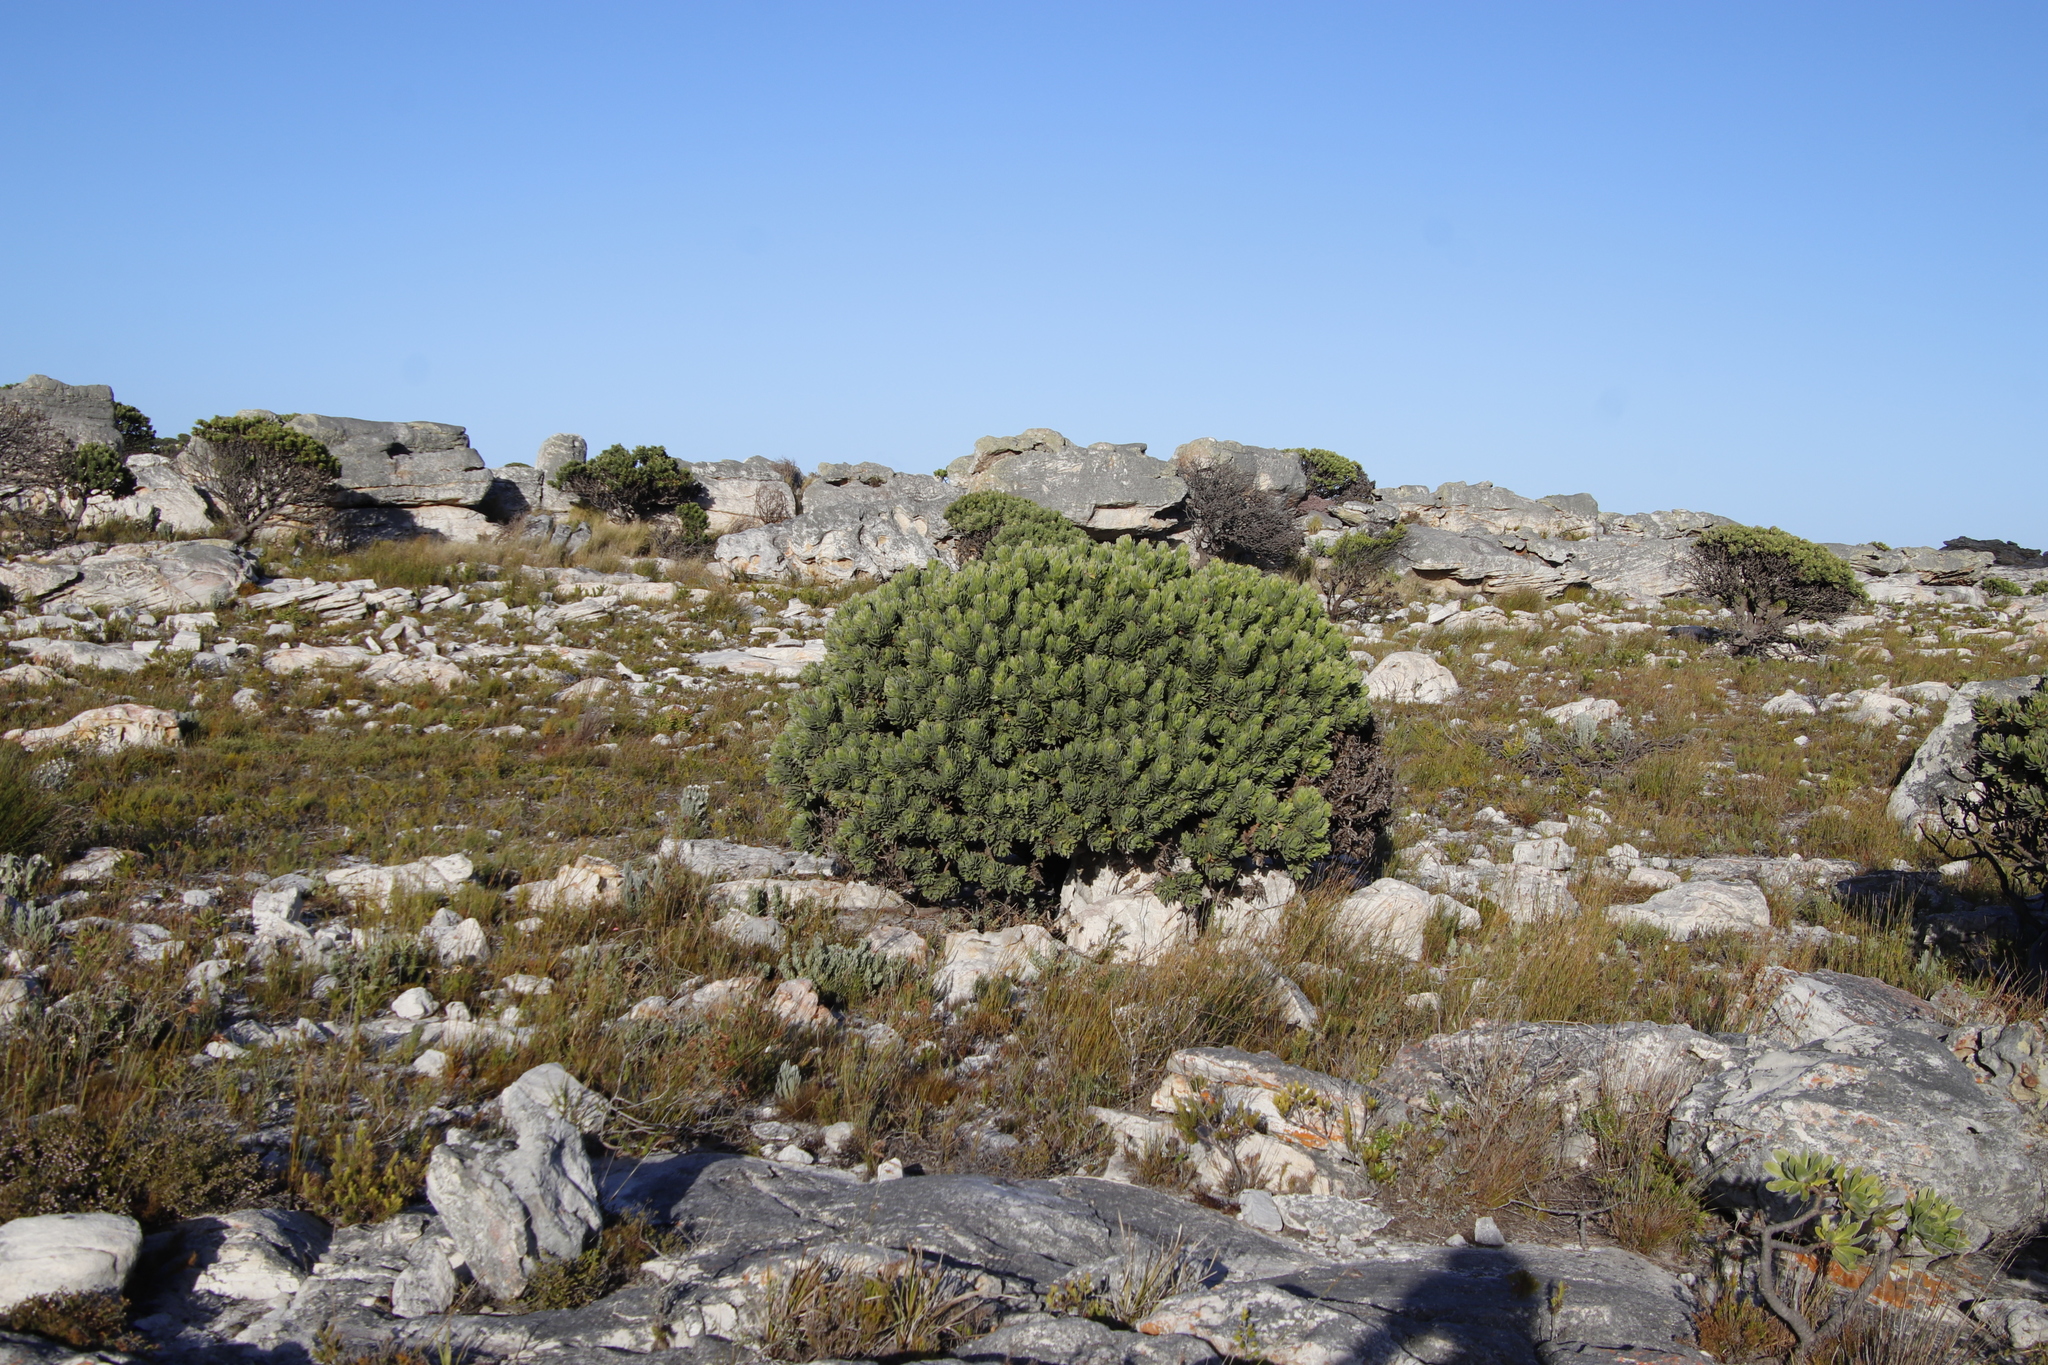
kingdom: Plantae
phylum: Tracheophyta
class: Magnoliopsida
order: Proteales
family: Proteaceae
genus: Mimetes
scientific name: Mimetes fimbriifolius
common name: Fringed bottlebrush
